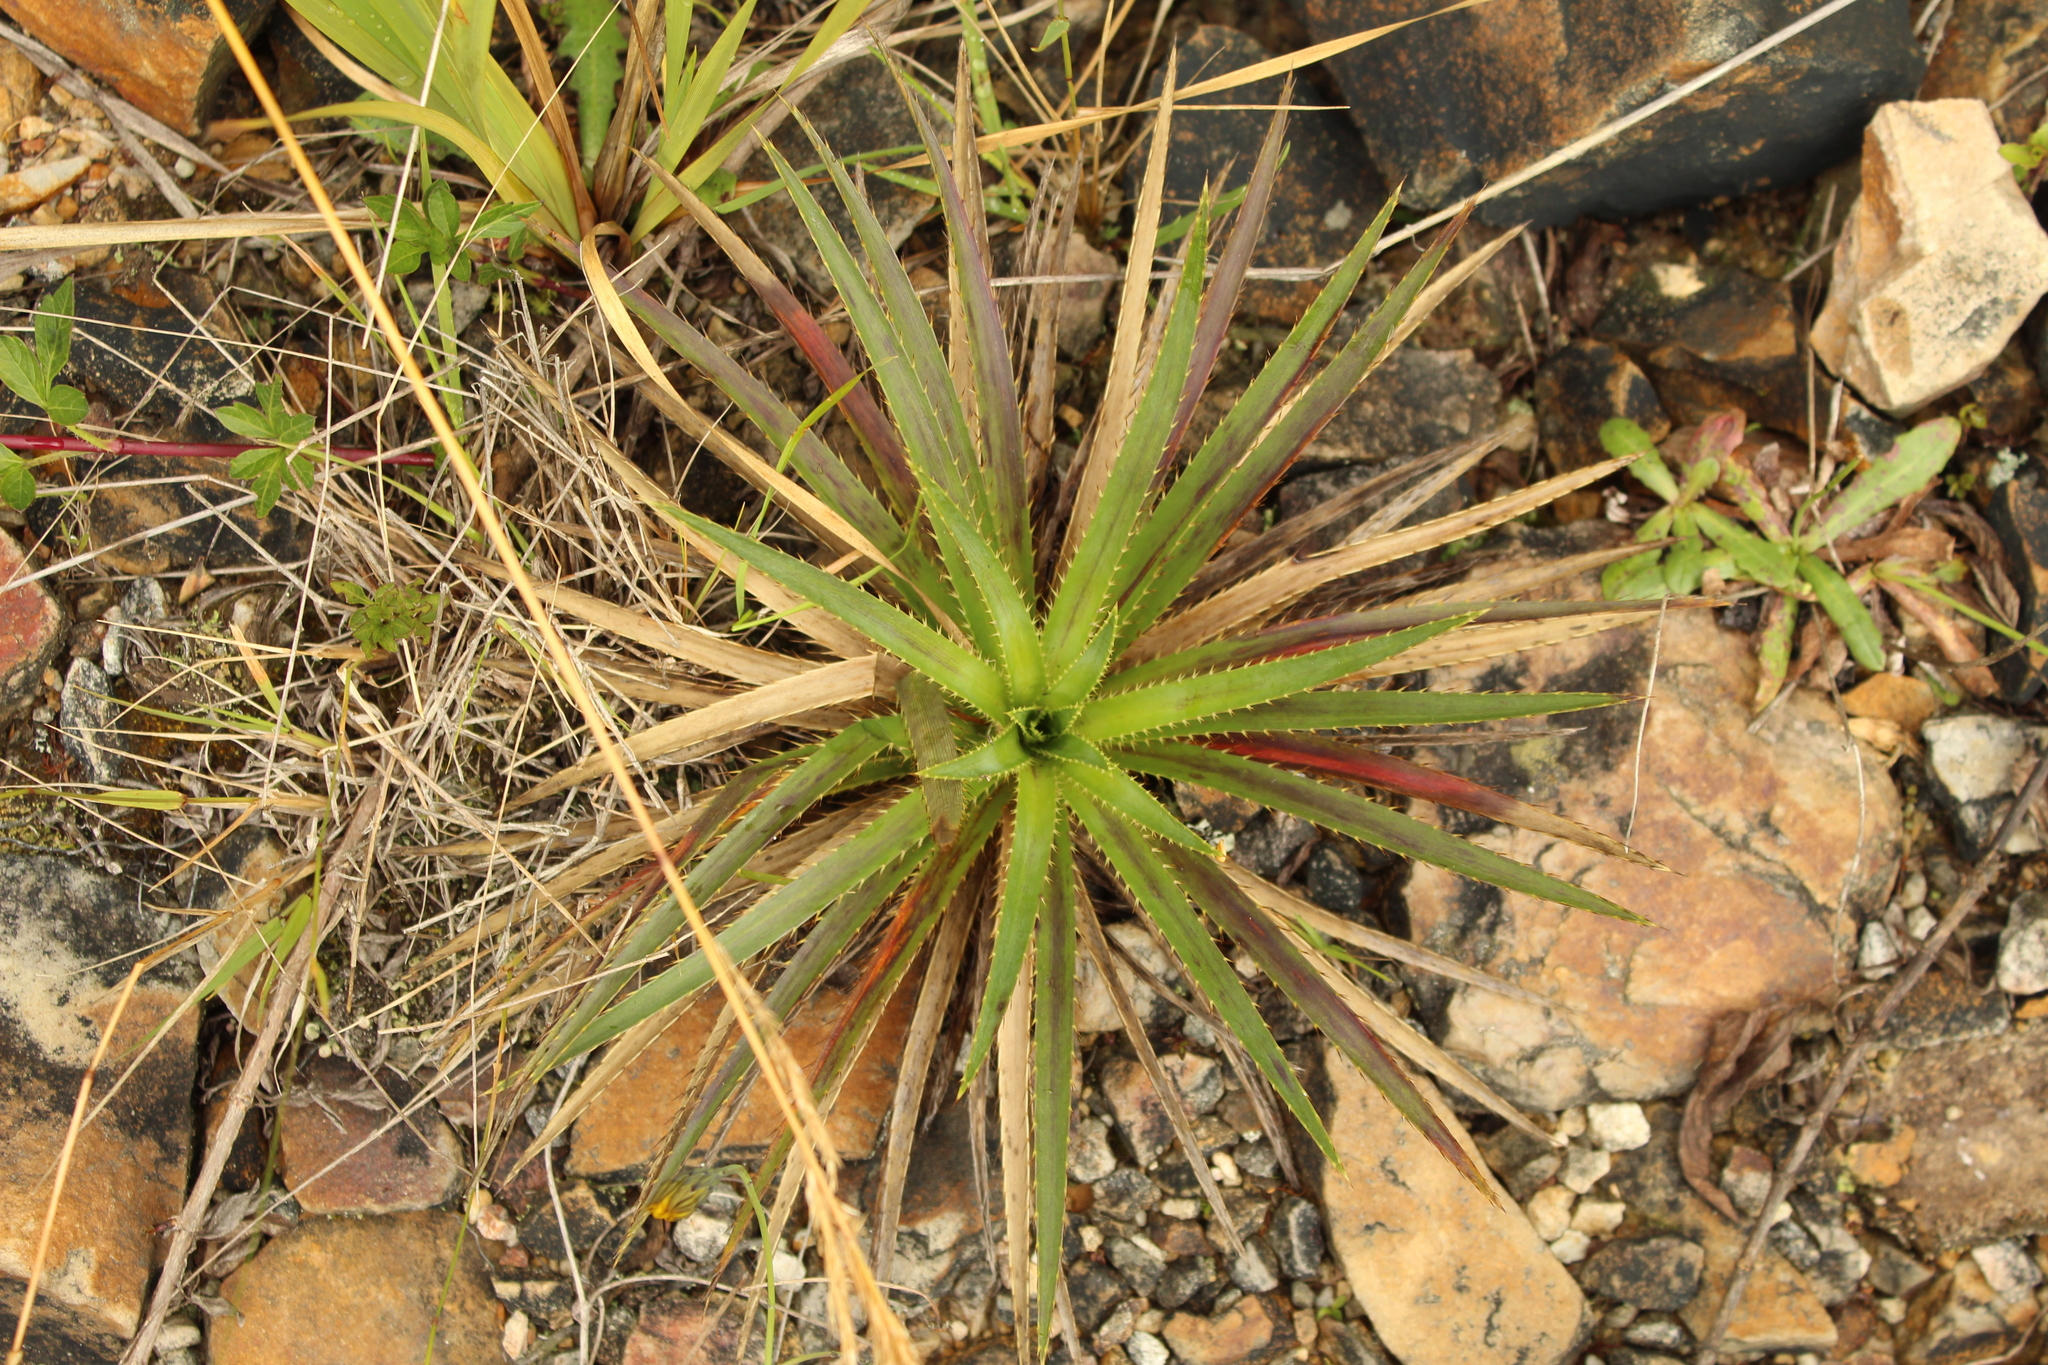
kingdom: Plantae
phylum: Tracheophyta
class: Magnoliopsida
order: Apiales
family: Apiaceae
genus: Eryngium
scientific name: Eryngium humboldtii
